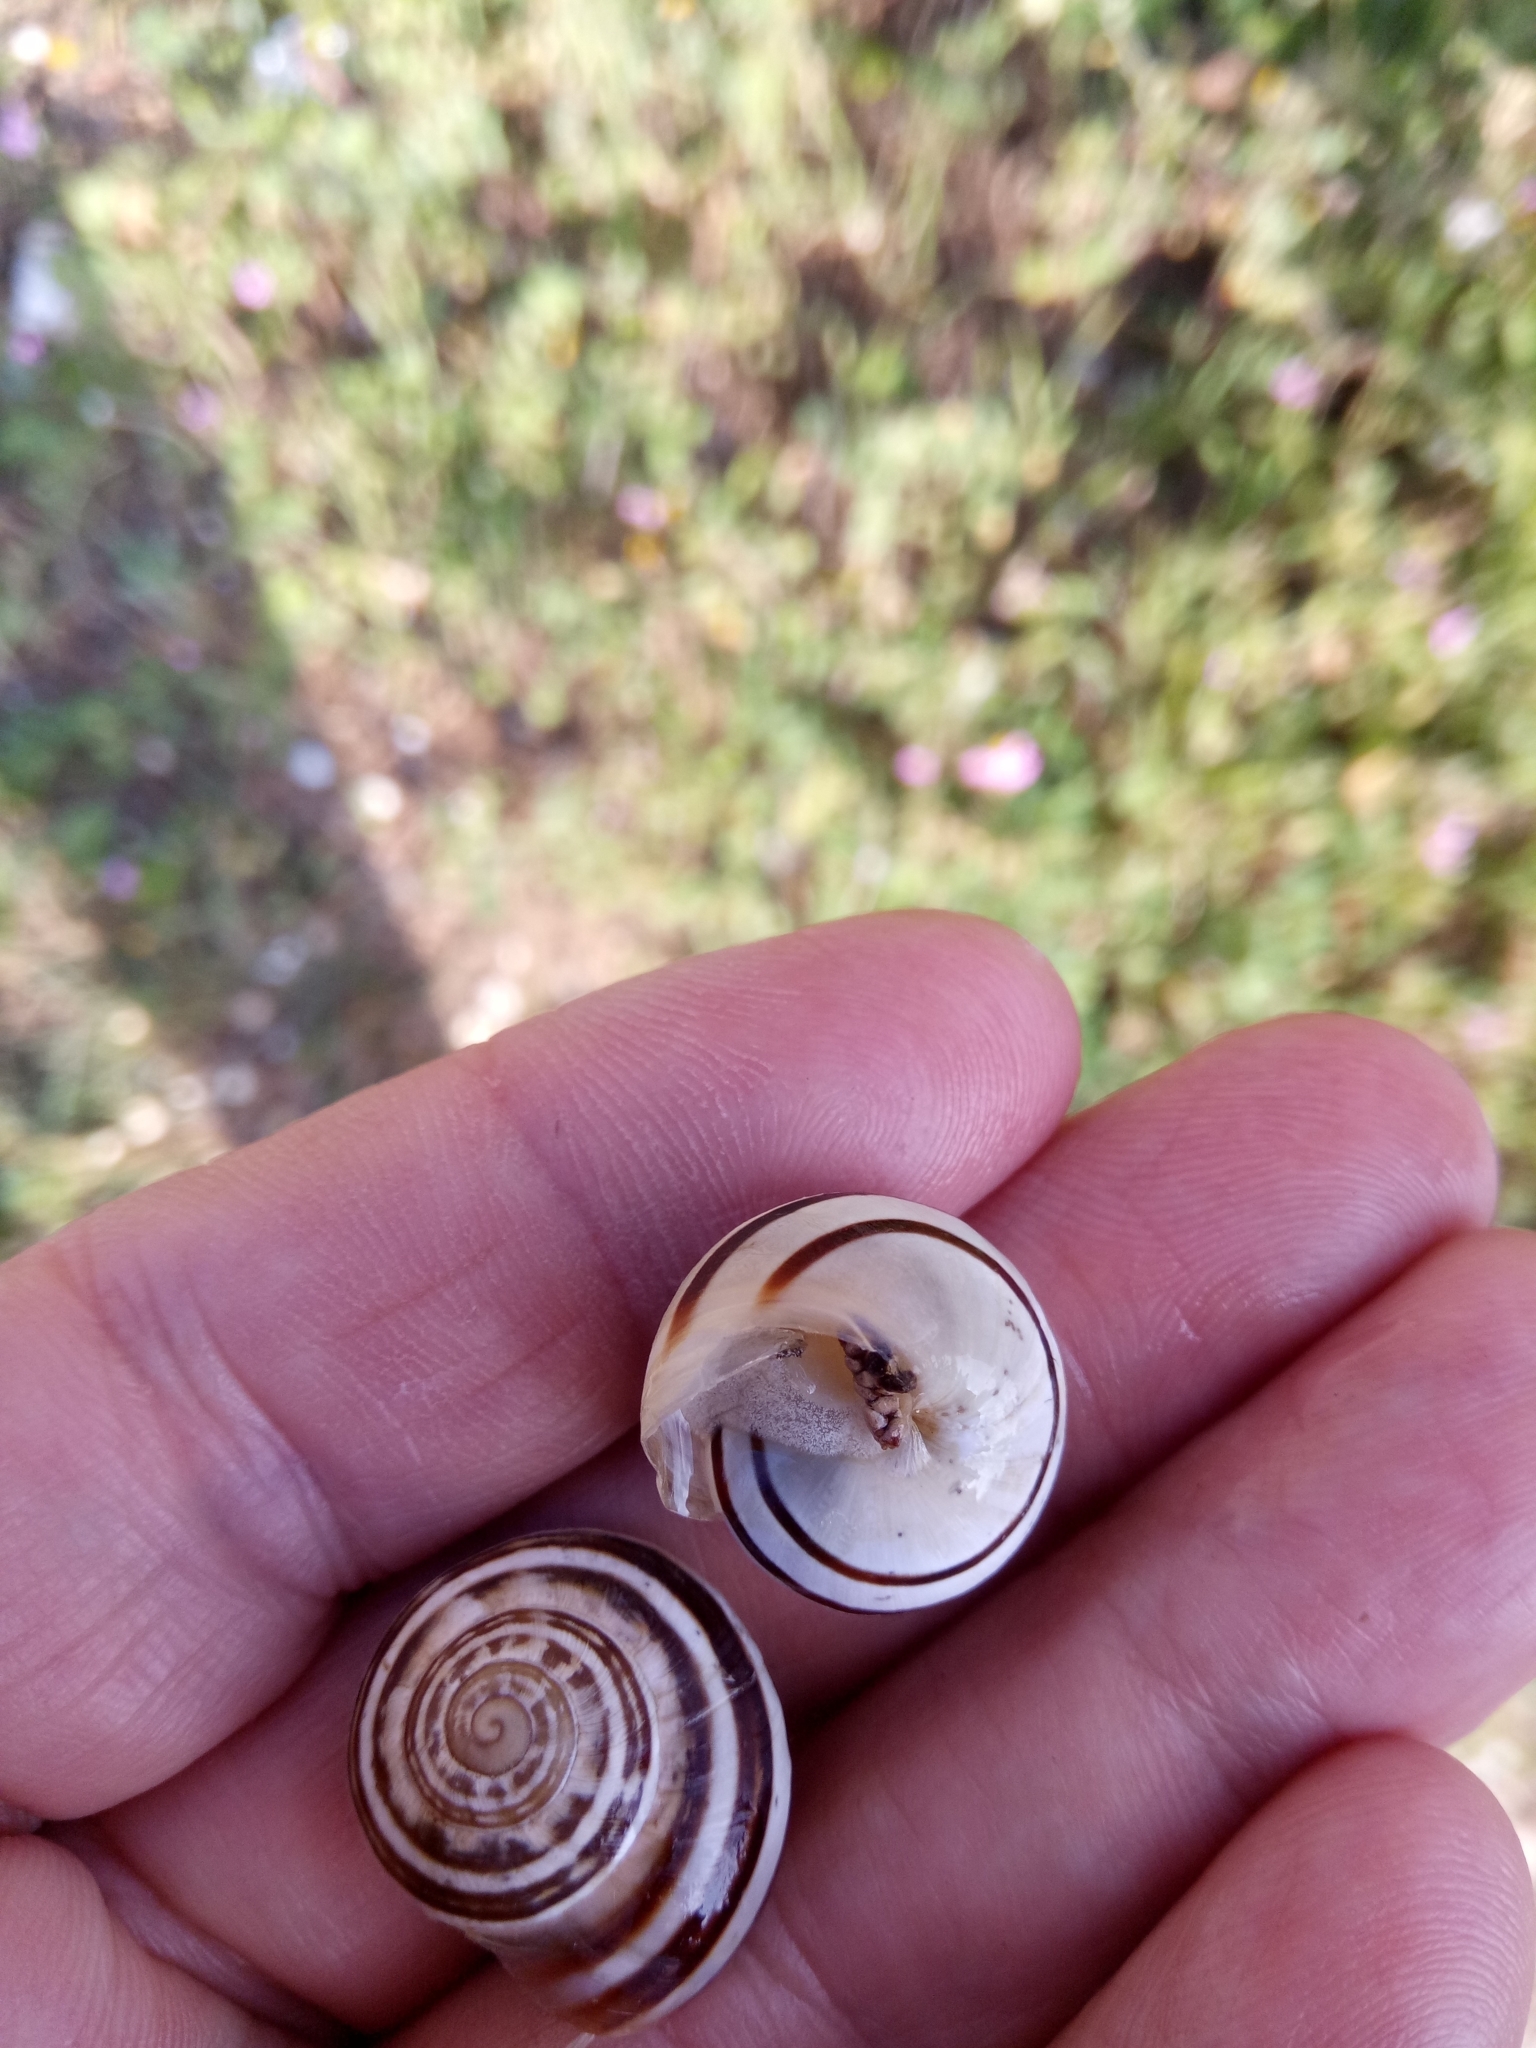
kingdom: Animalia
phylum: Mollusca
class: Gastropoda
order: Stylommatophora
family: Helicidae
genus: Eobania
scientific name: Eobania vermiculata
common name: Chocolateband snail
